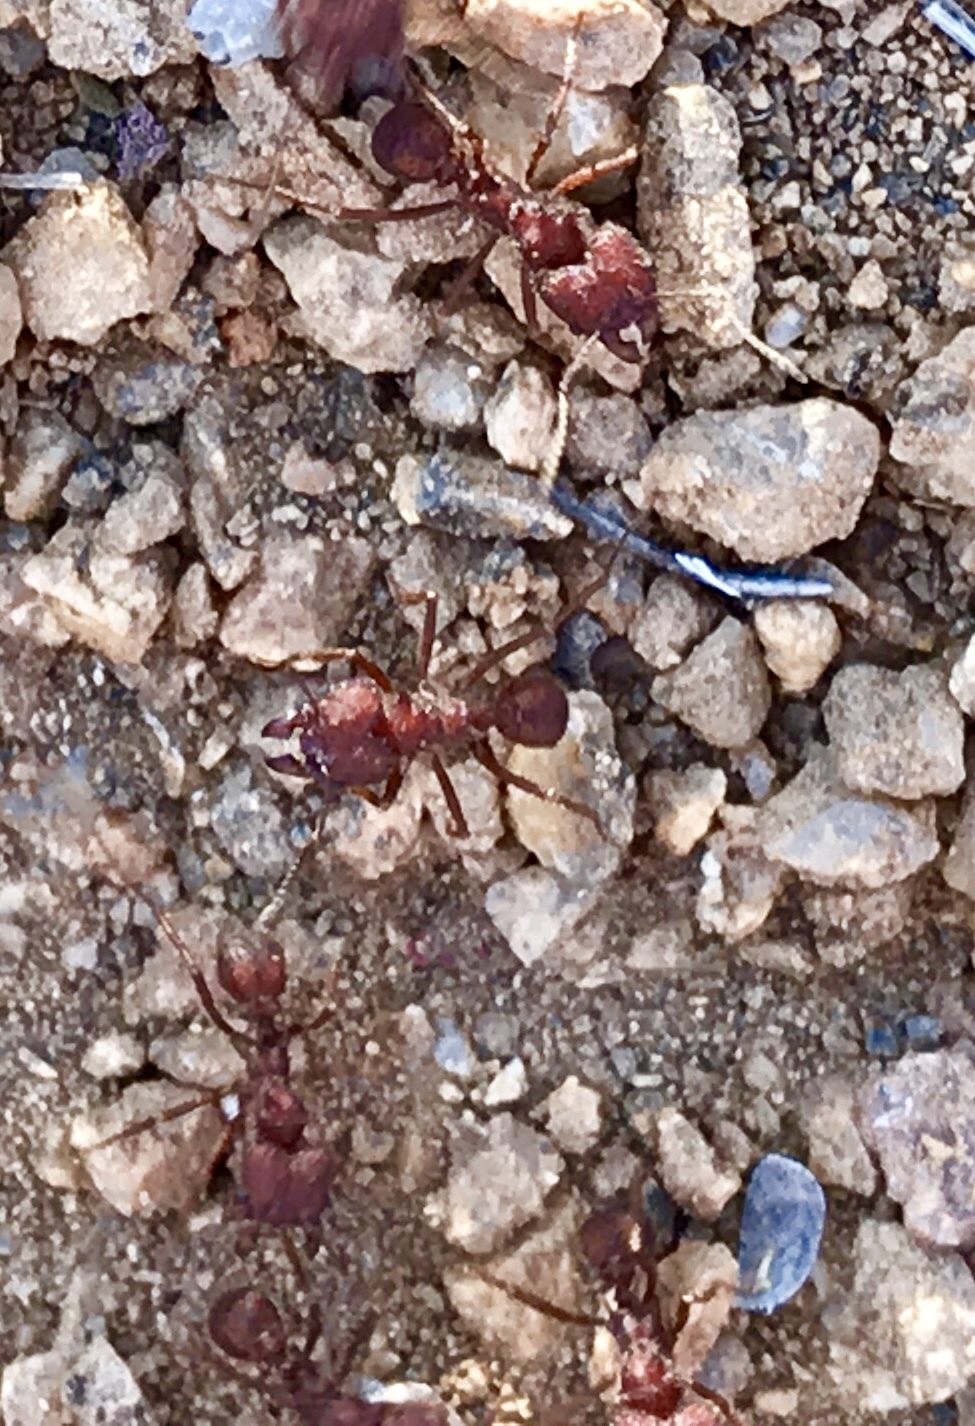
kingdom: Animalia
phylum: Arthropoda
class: Insecta
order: Hymenoptera
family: Formicidae
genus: Acromyrmex
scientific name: Acromyrmex versicolor
